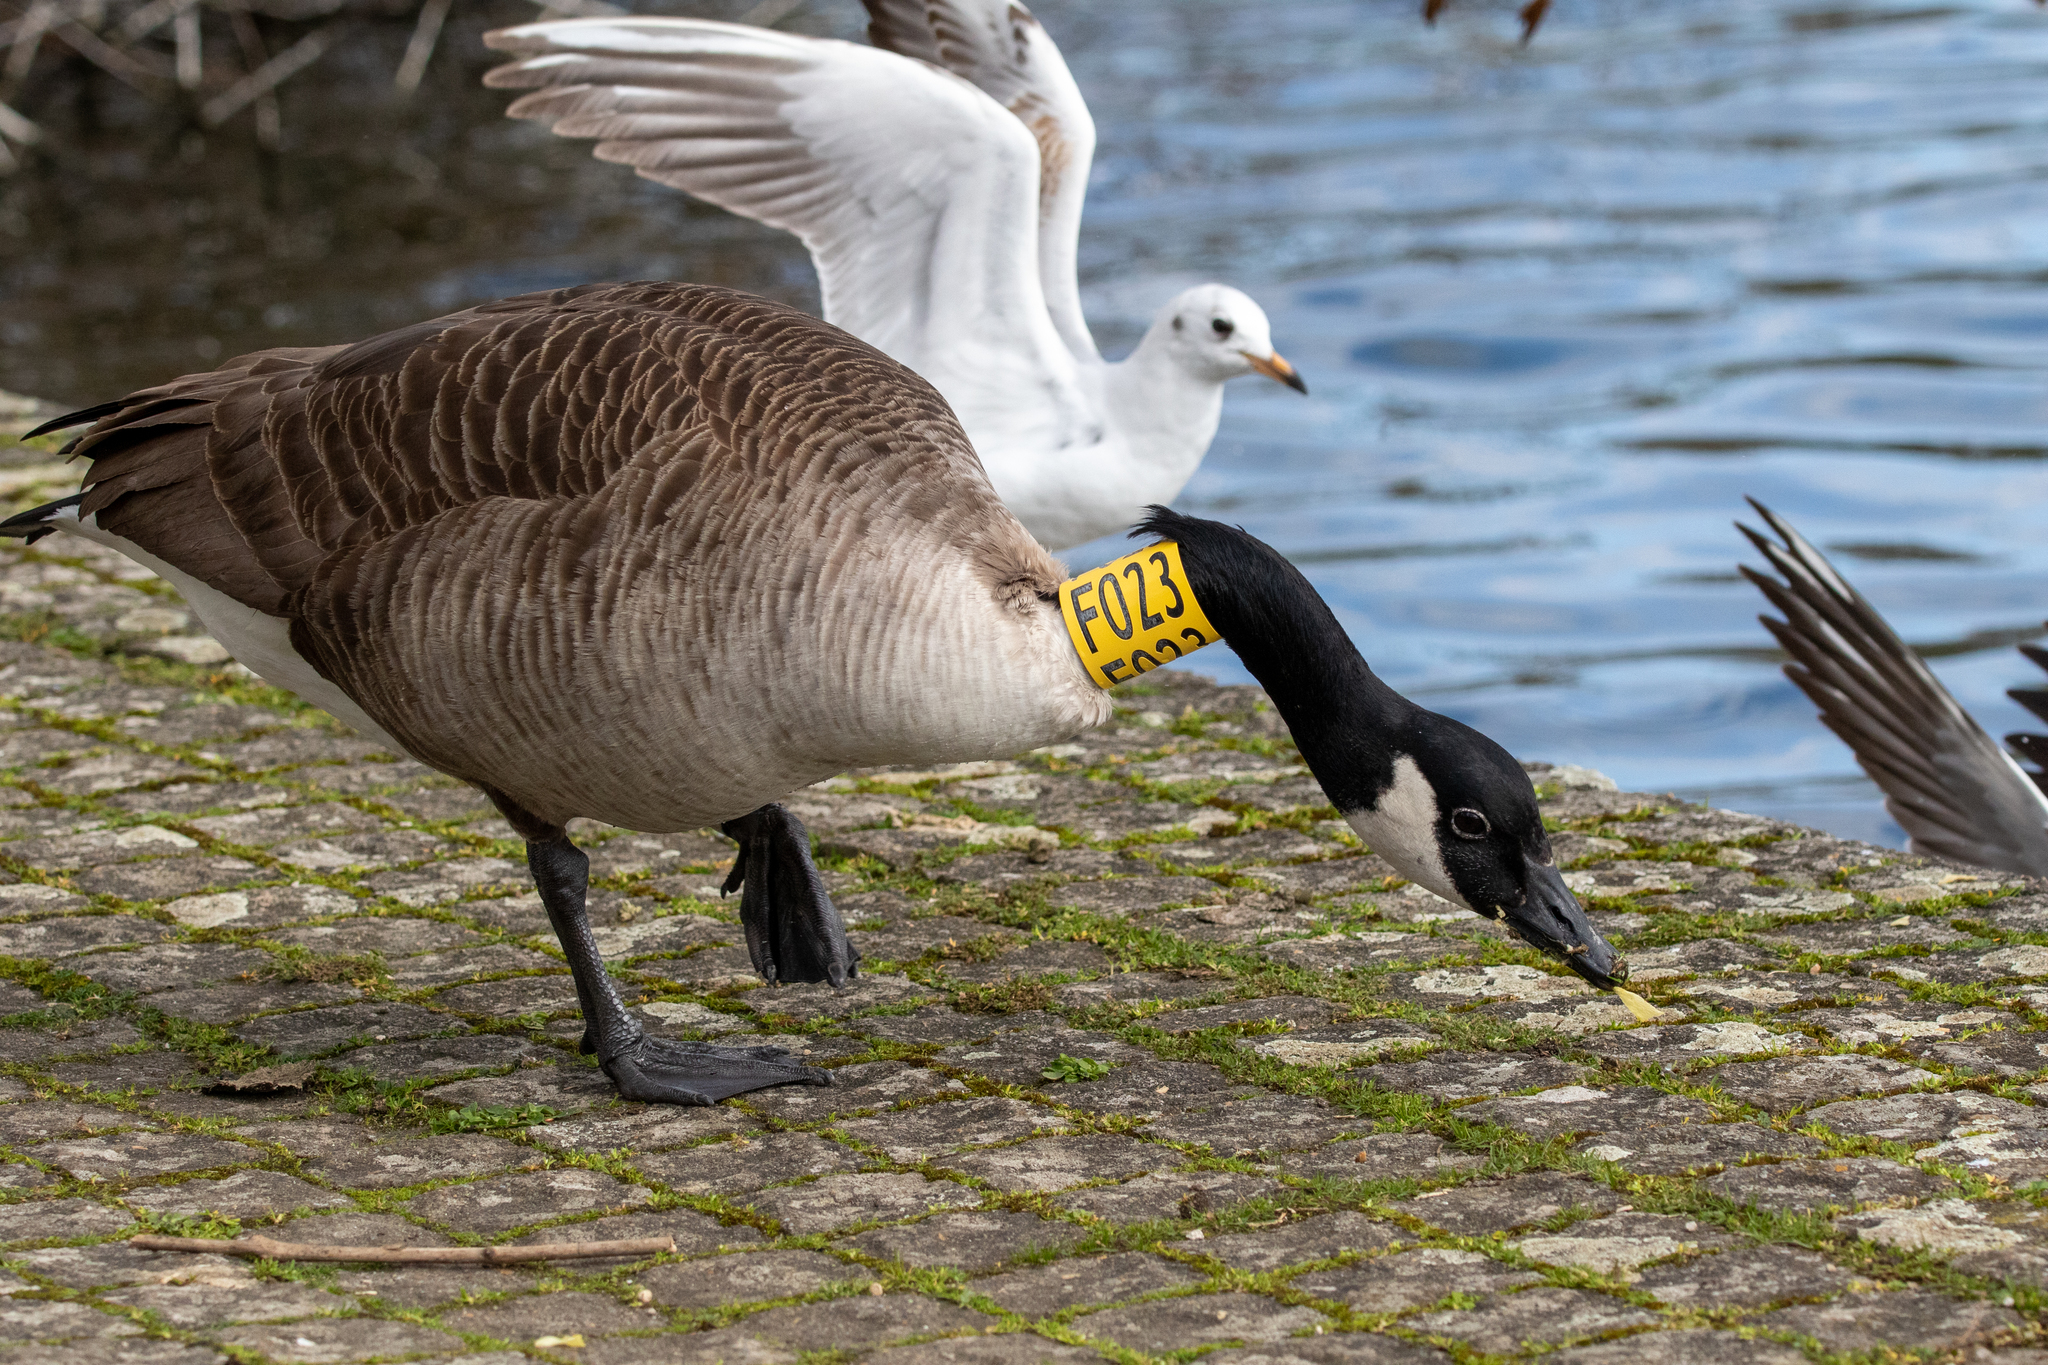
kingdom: Animalia
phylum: Chordata
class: Aves
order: Anseriformes
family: Anatidae
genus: Branta
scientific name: Branta canadensis
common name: Canada goose
